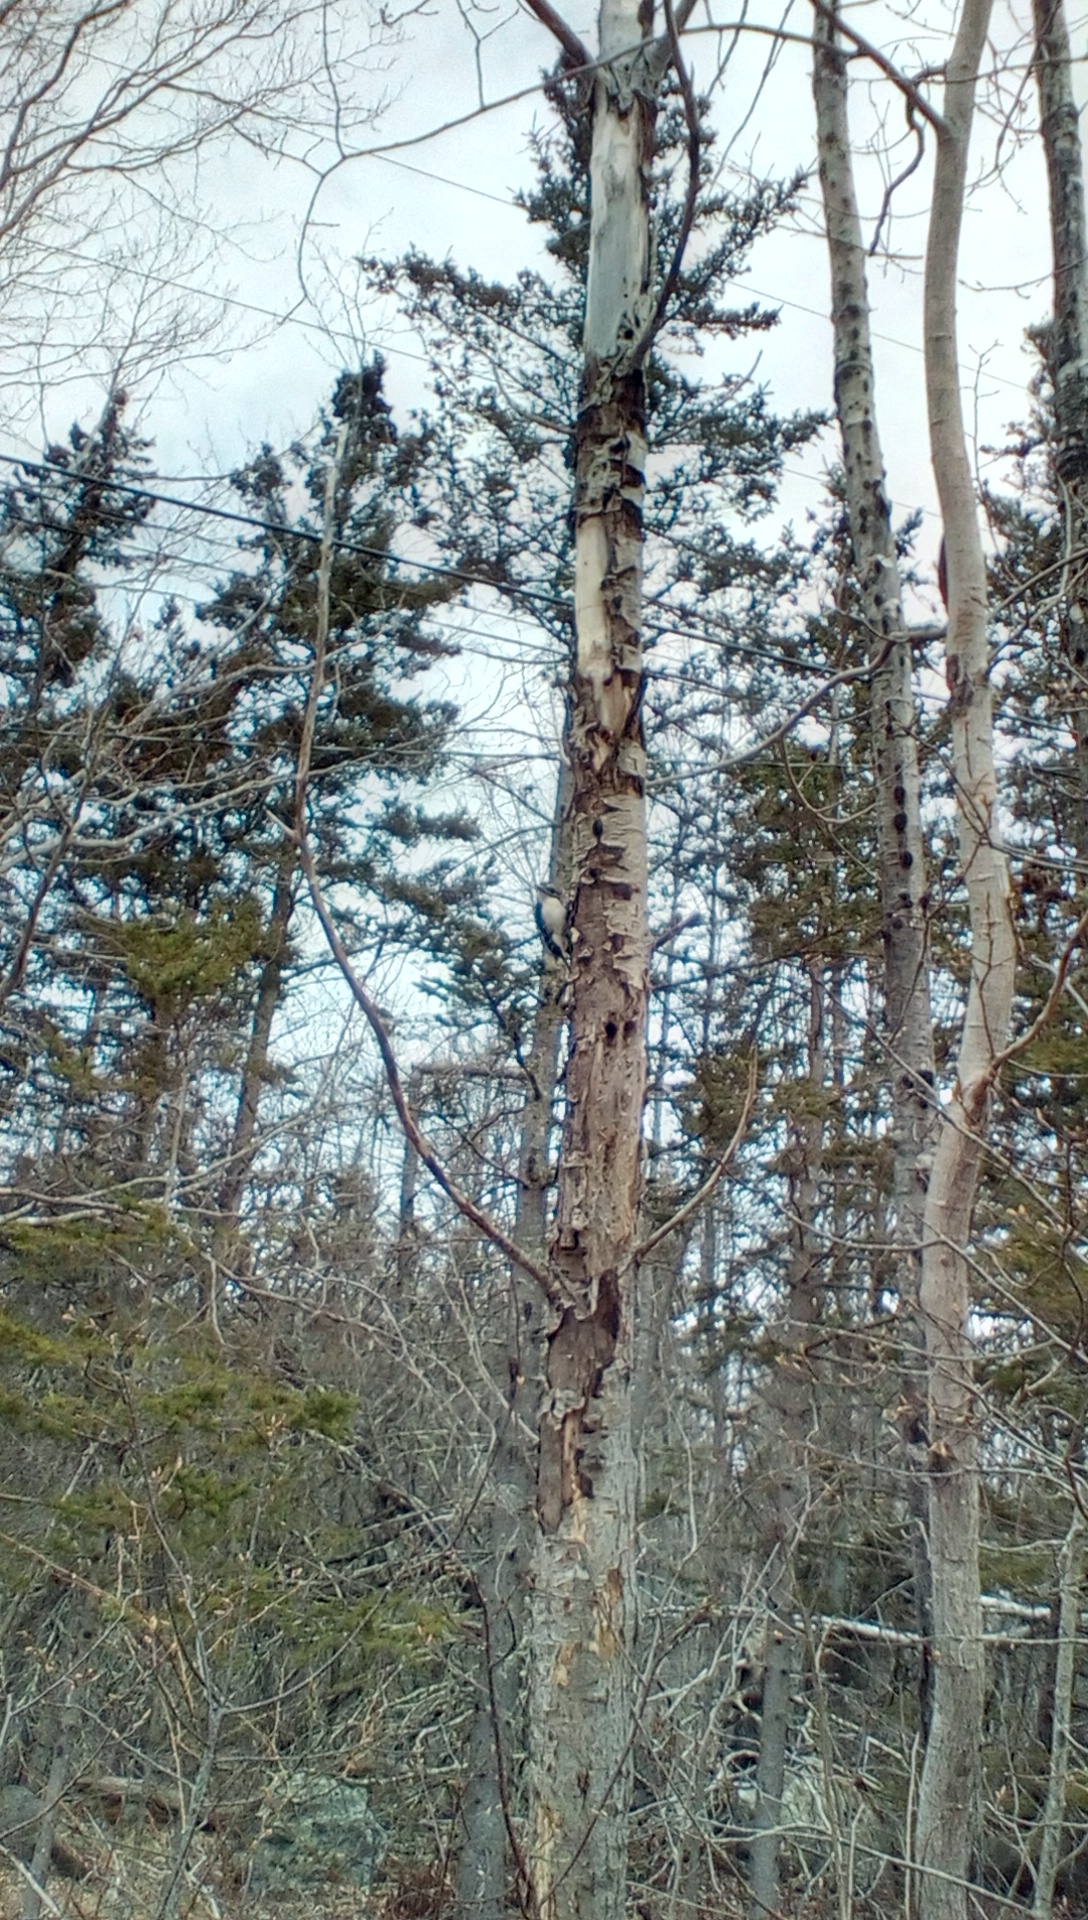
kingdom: Animalia
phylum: Chordata
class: Aves
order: Piciformes
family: Picidae
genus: Leuconotopicus
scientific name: Leuconotopicus villosus
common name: Hairy woodpecker
